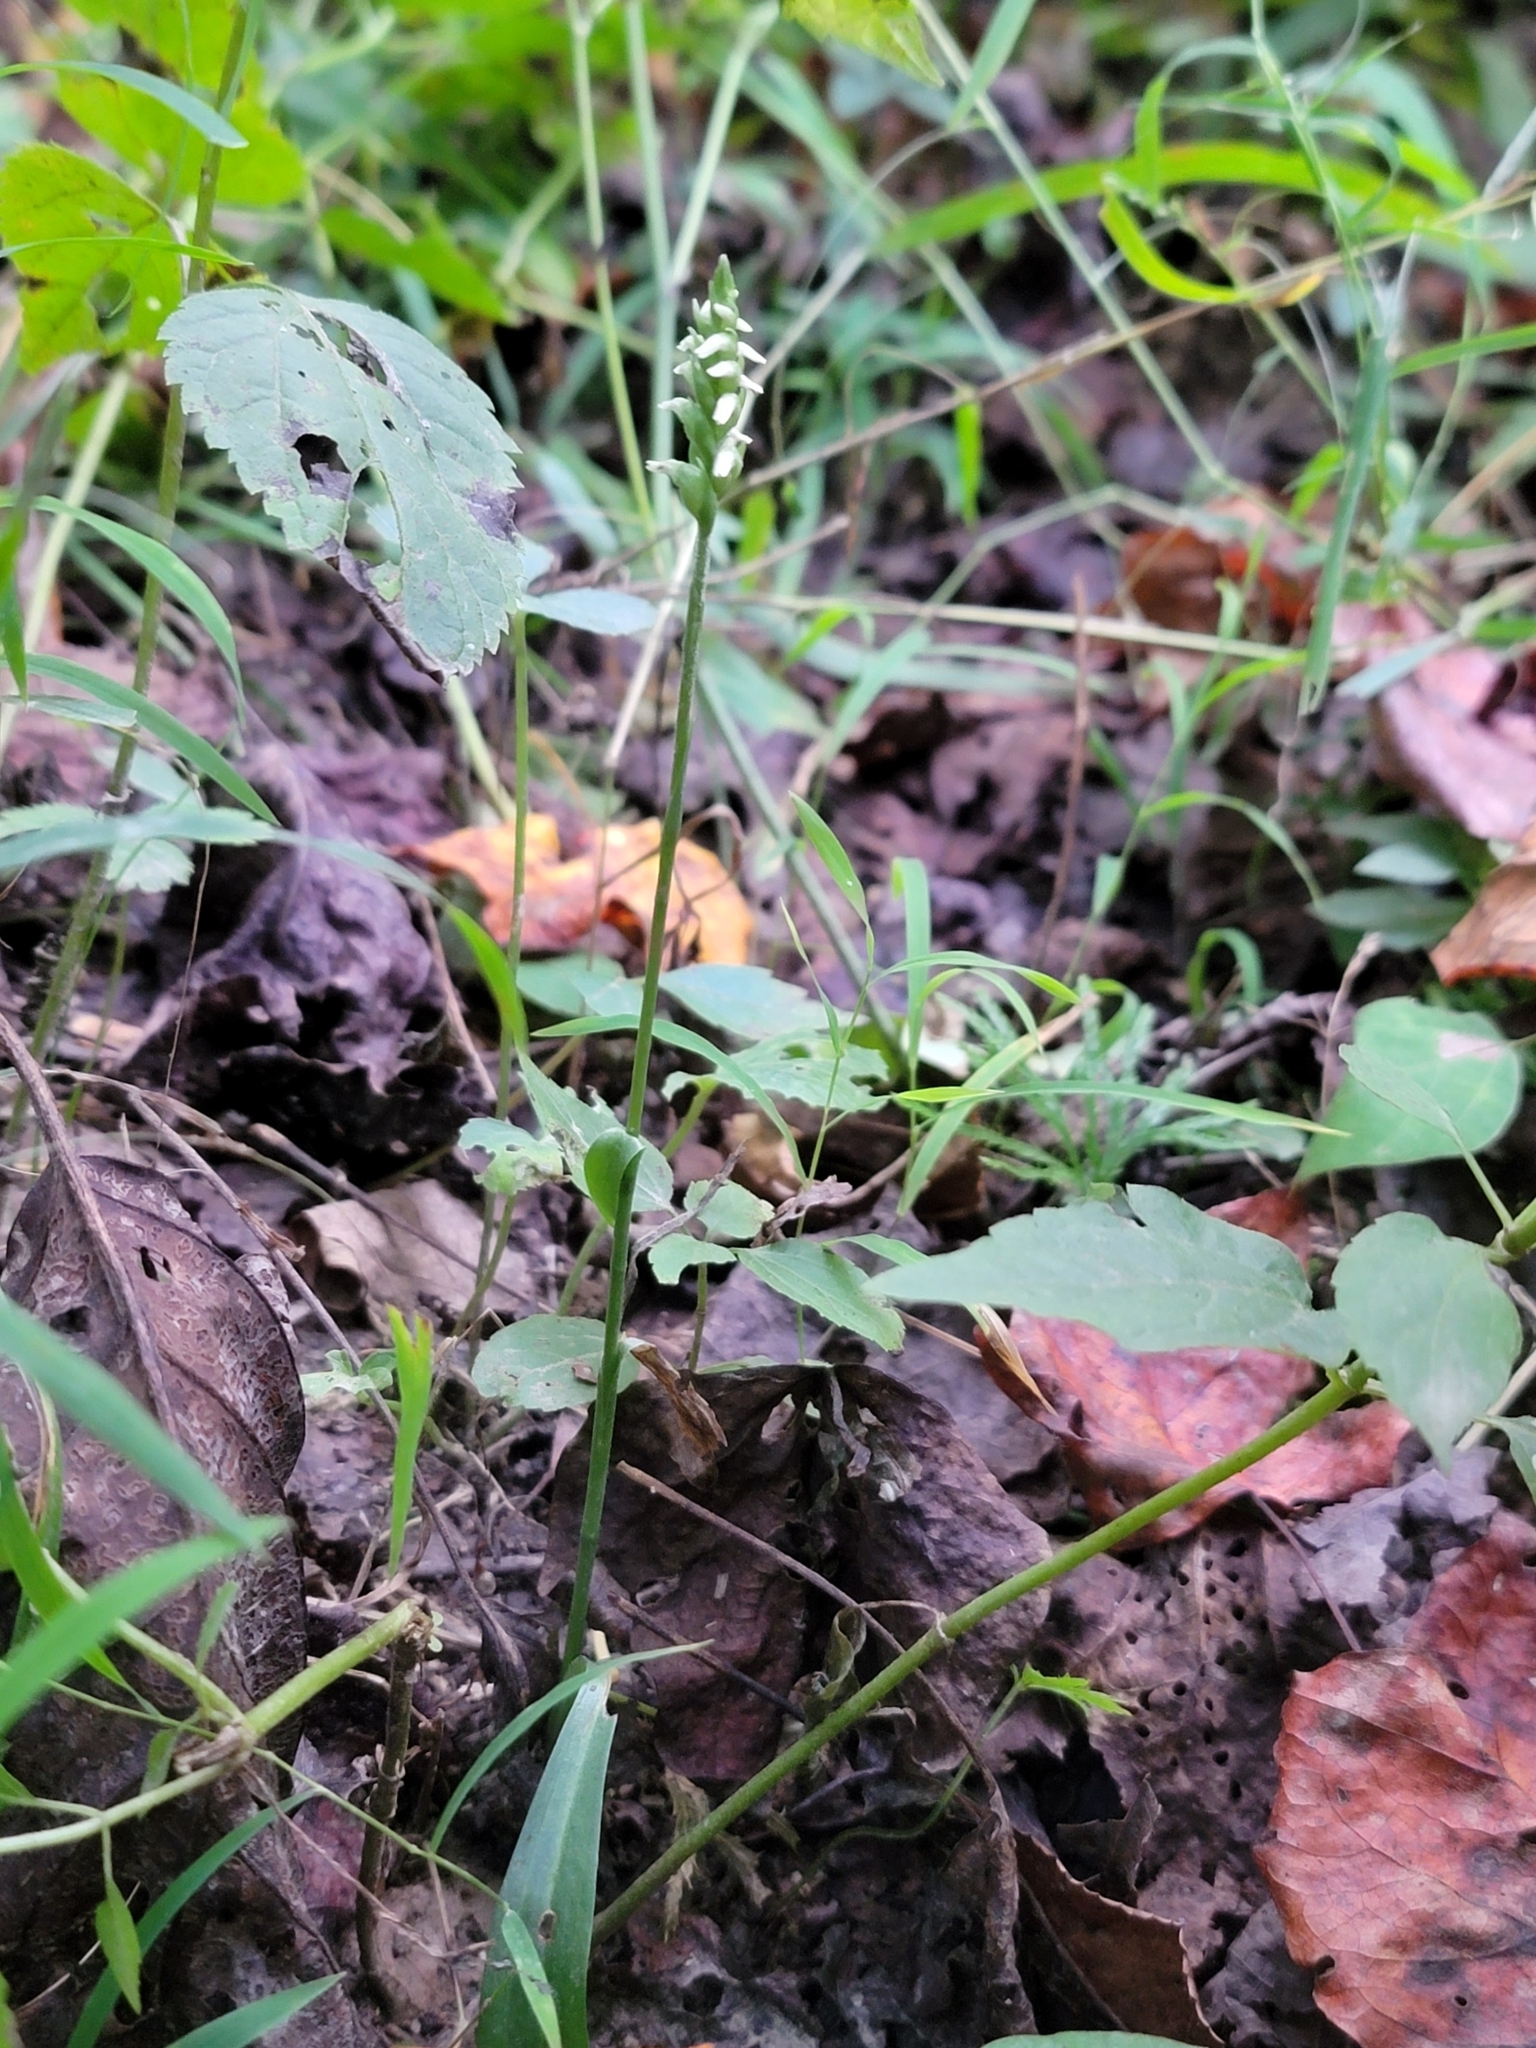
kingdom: Plantae
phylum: Tracheophyta
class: Liliopsida
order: Asparagales
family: Orchidaceae
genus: Spiranthes
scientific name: Spiranthes ovalis
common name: October ladies'-tresses
